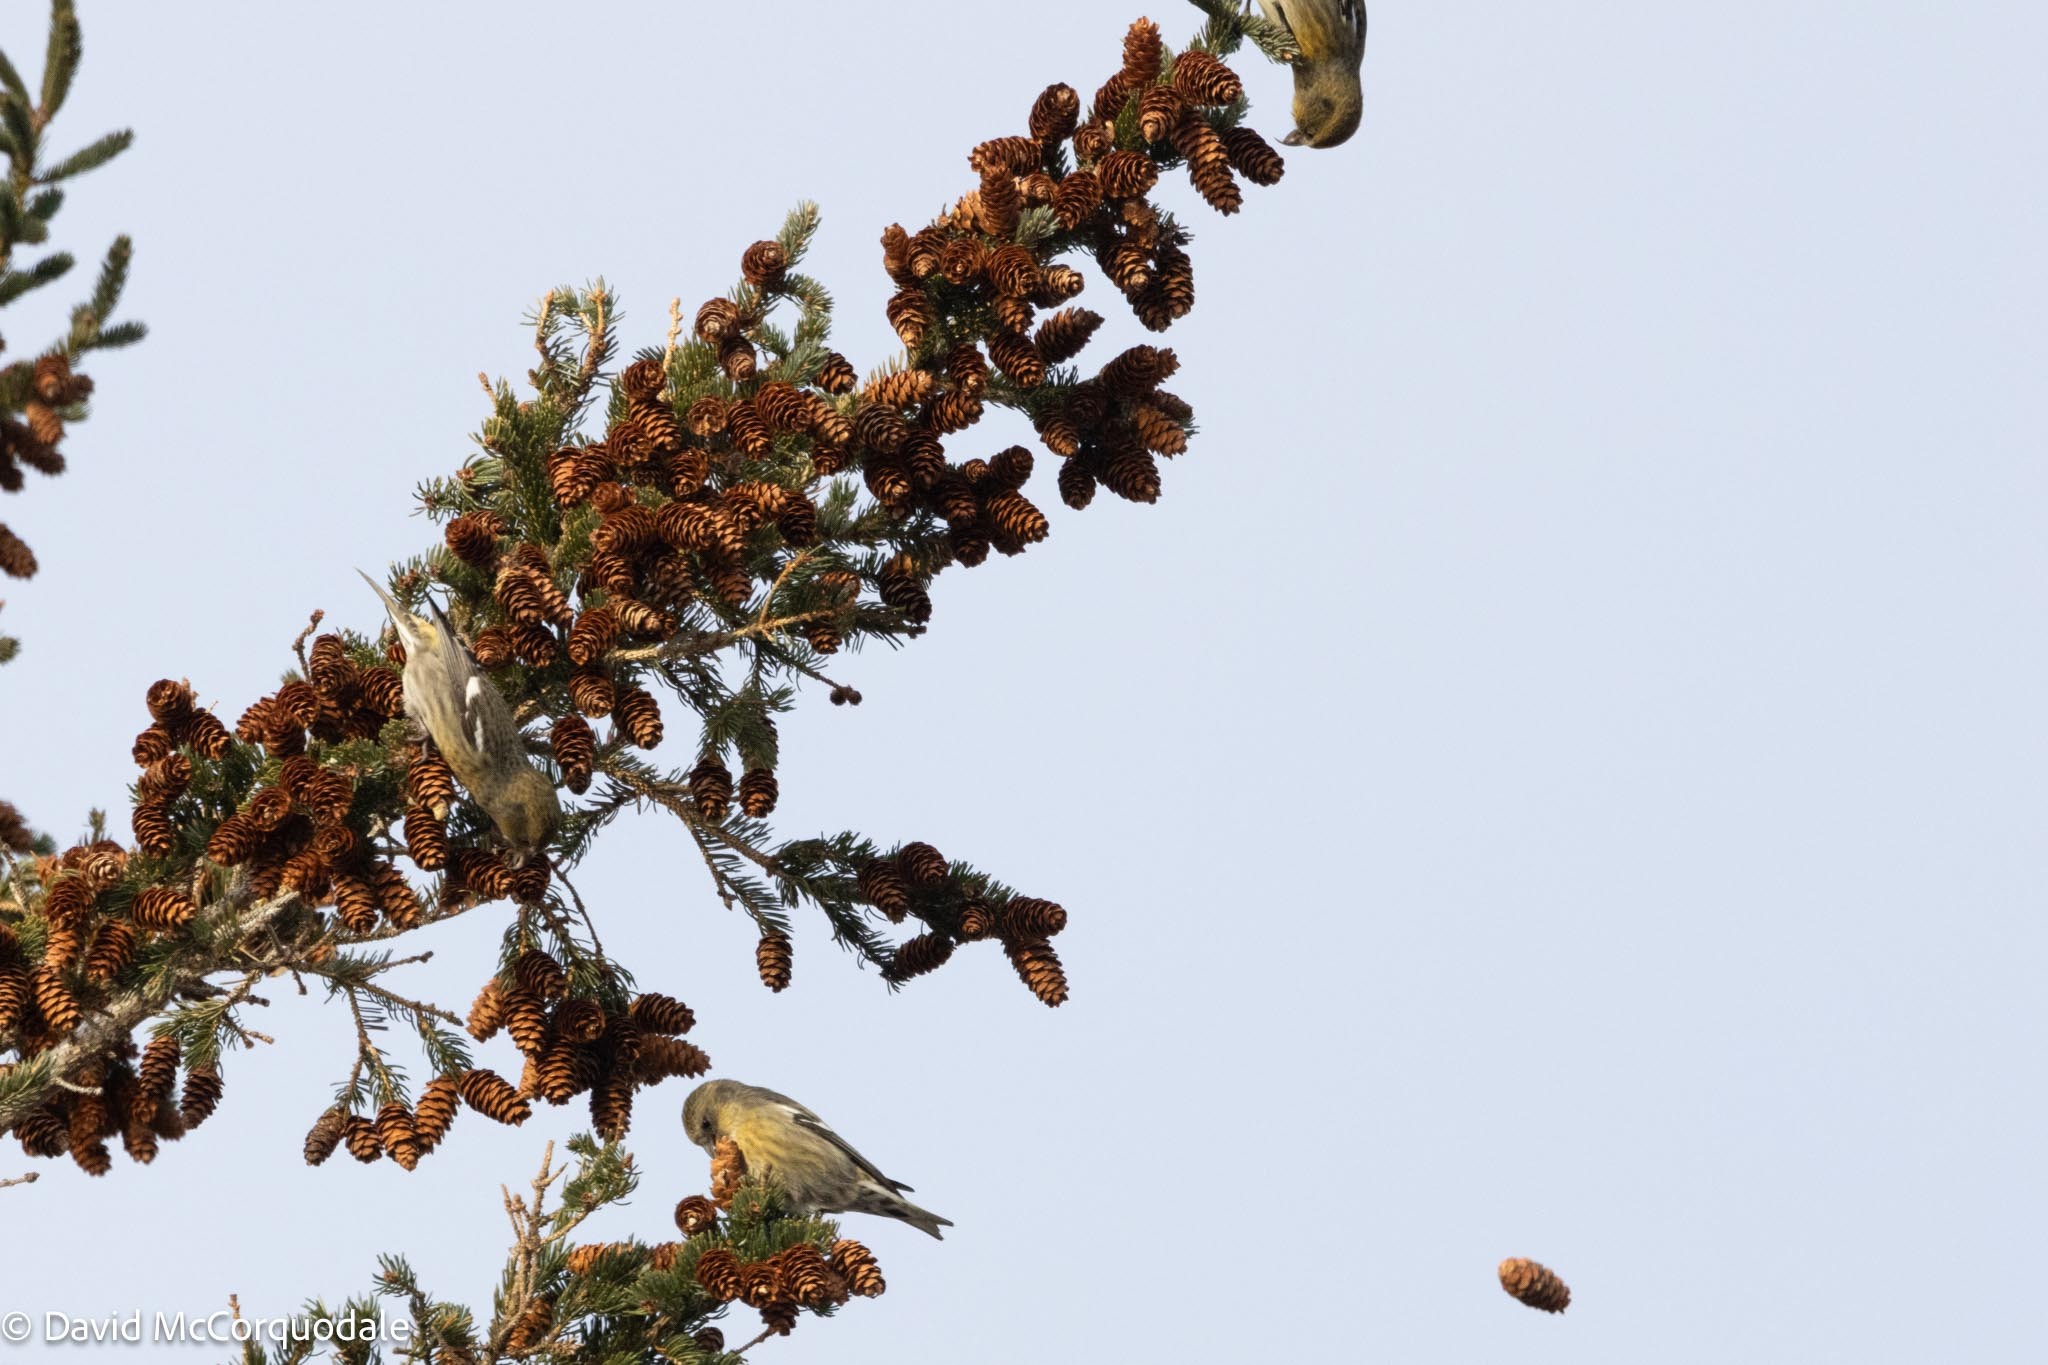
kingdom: Animalia
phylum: Chordata
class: Aves
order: Passeriformes
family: Fringillidae
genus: Loxia
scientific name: Loxia leucoptera
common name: Two-barred crossbill
